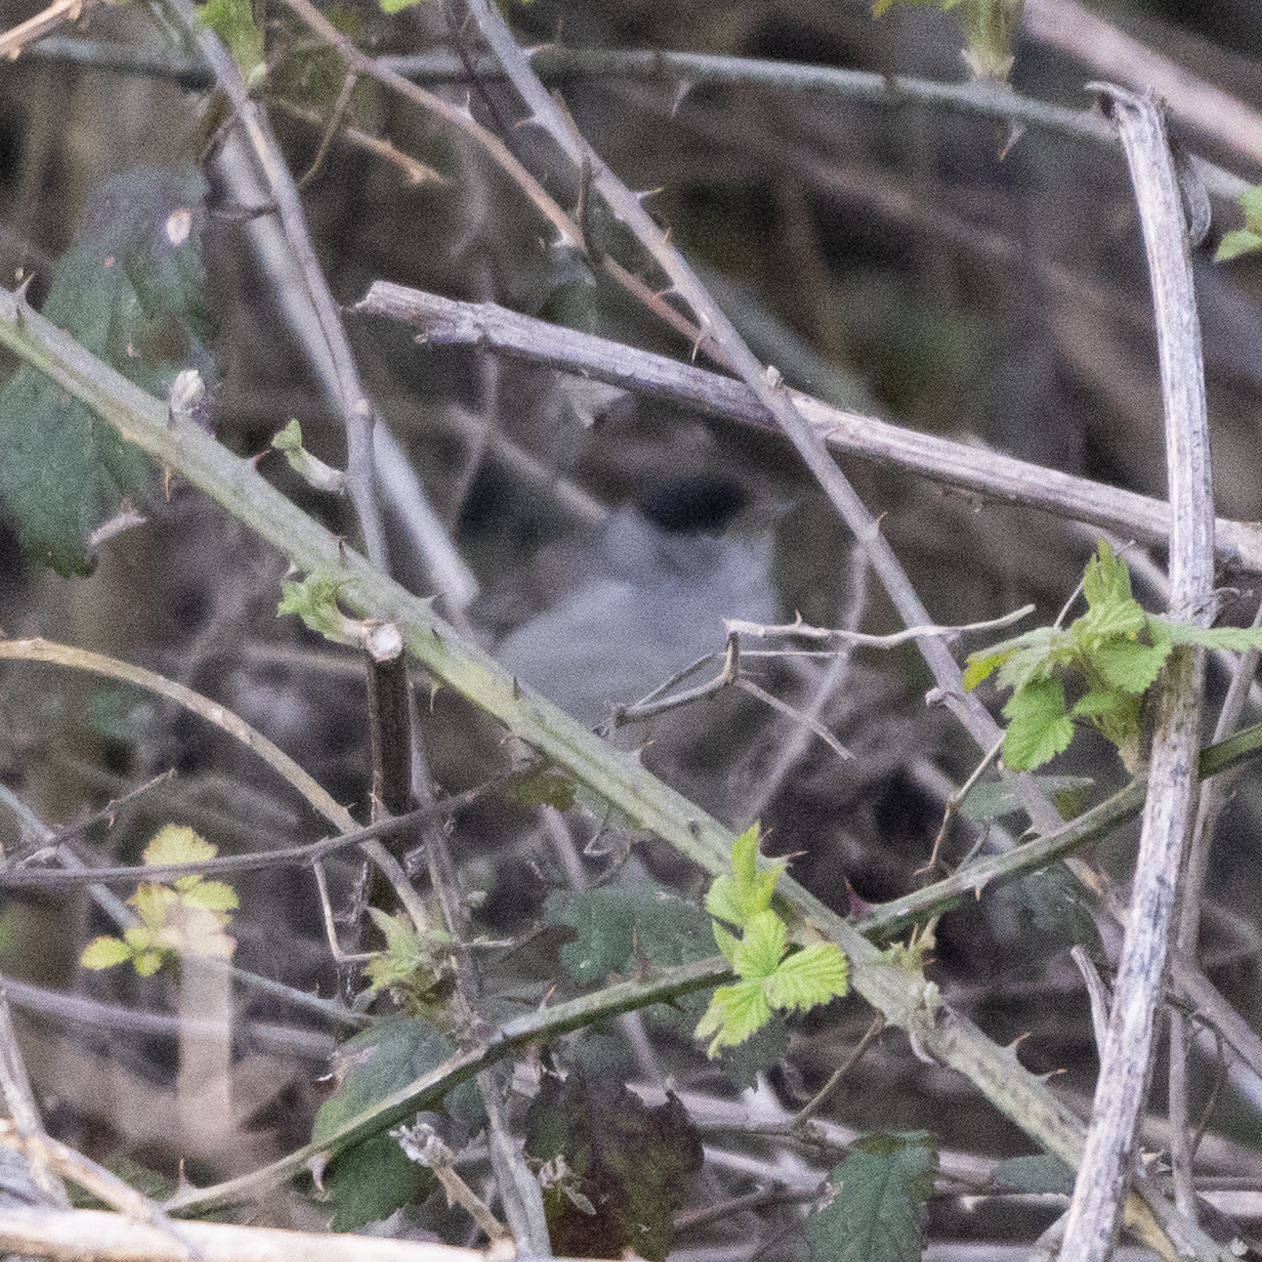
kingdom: Animalia
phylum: Chordata
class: Aves
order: Passeriformes
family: Sylviidae
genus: Sylvia
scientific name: Sylvia atricapilla
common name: Eurasian blackcap
